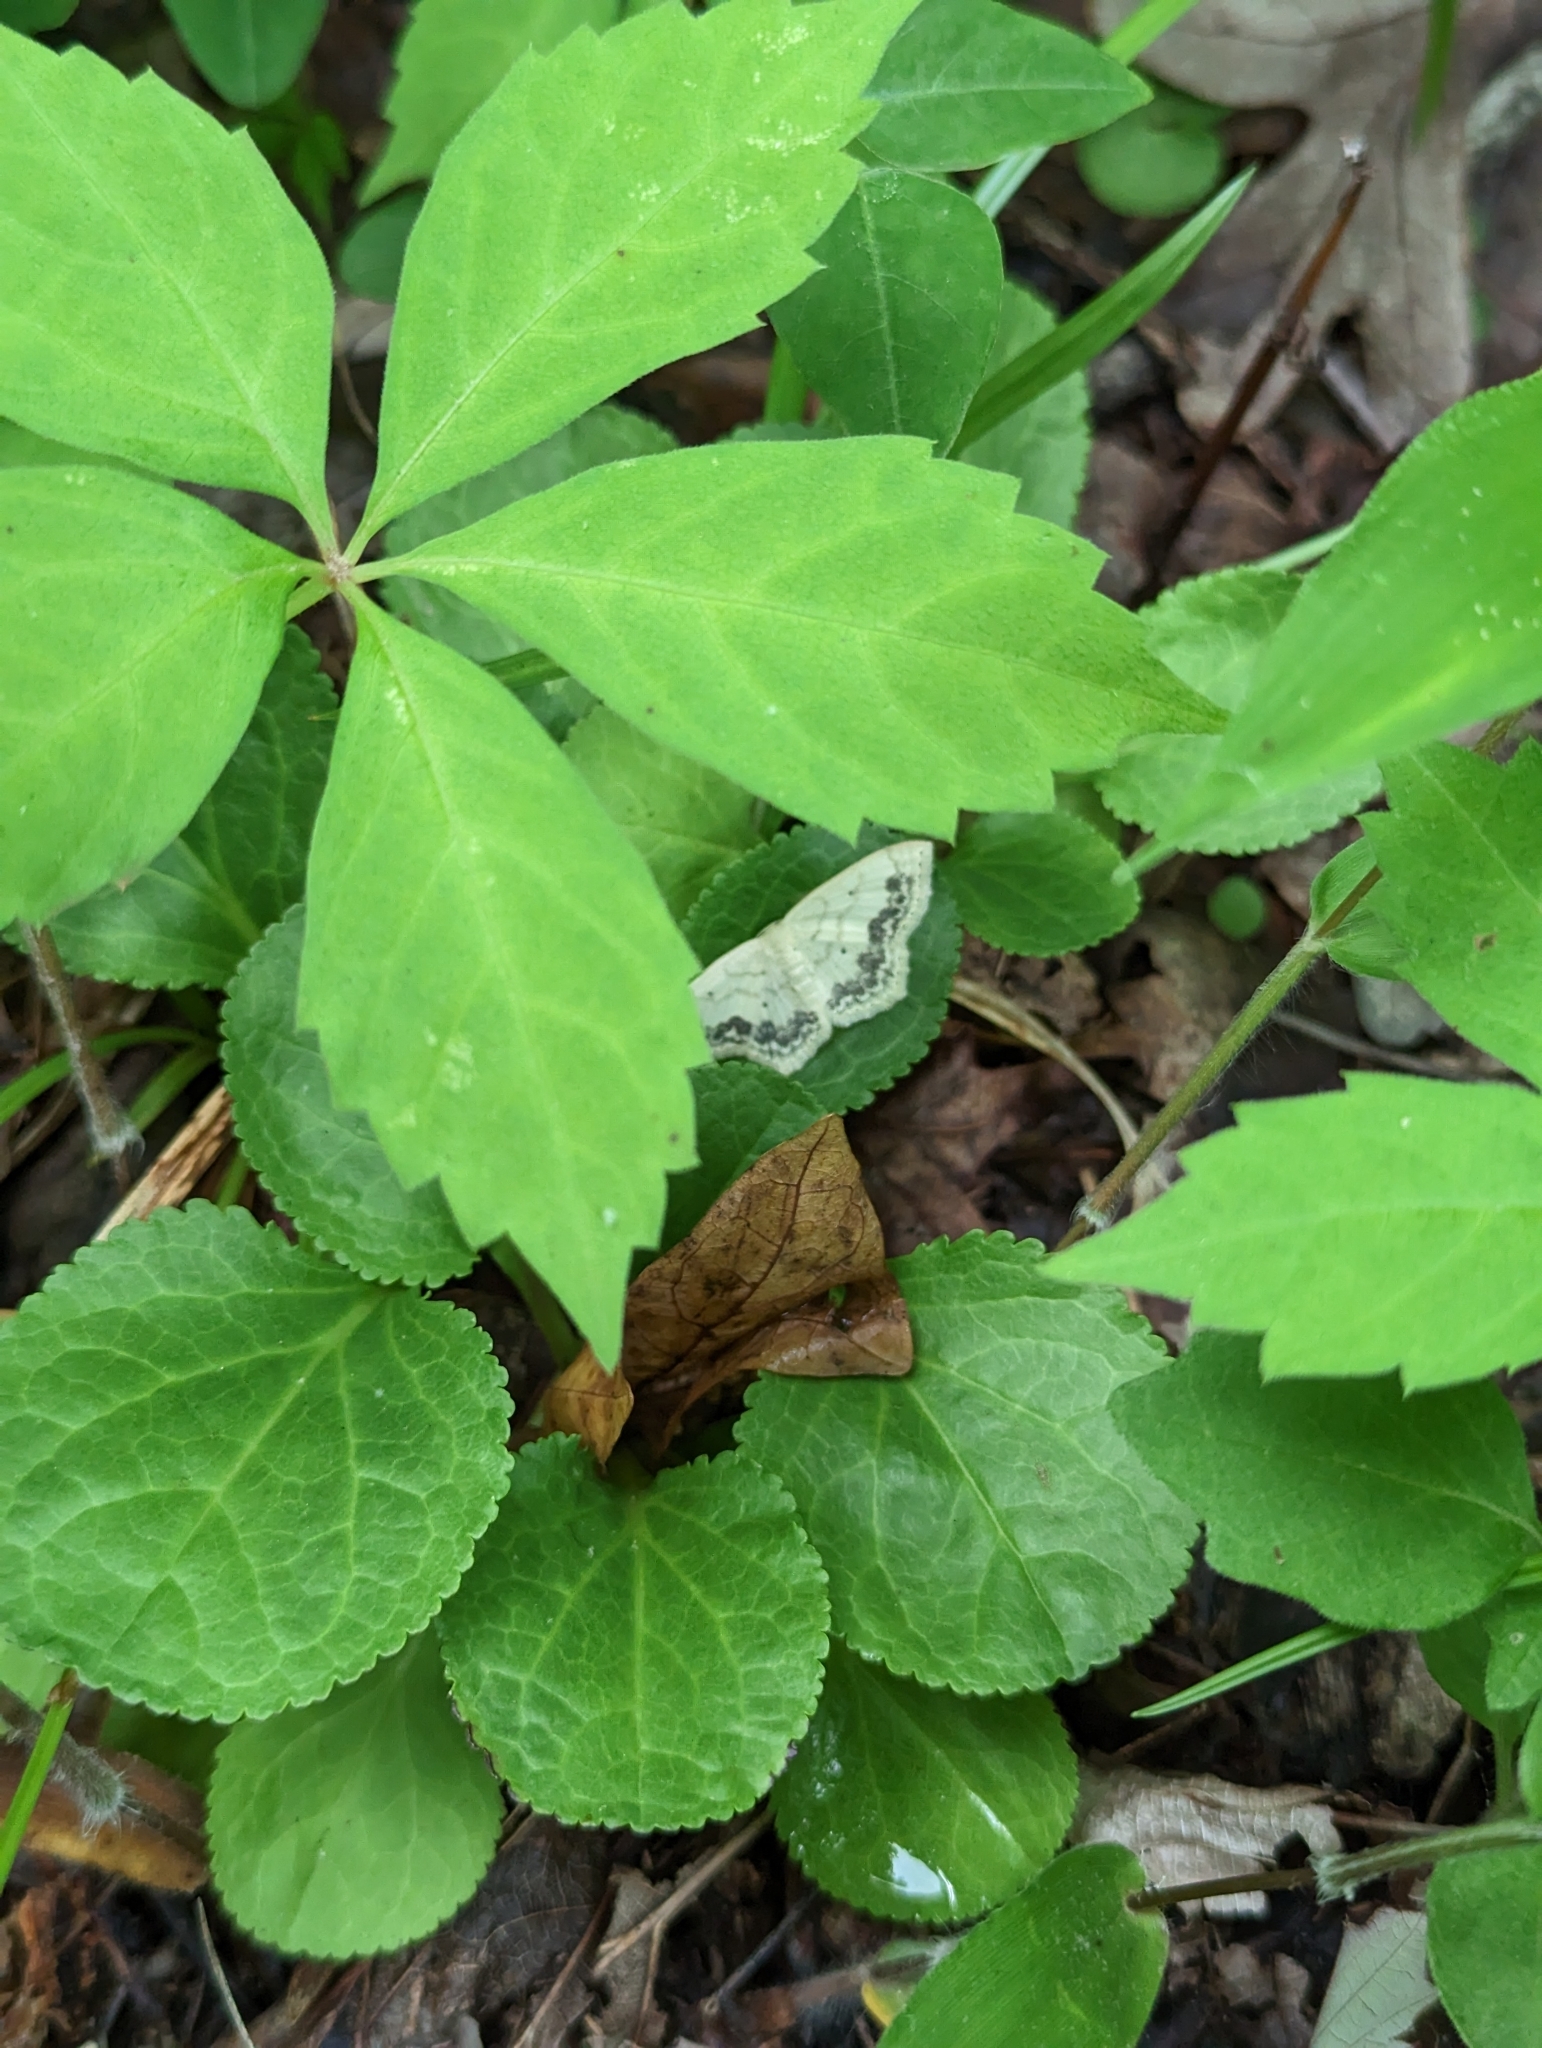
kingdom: Animalia
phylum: Arthropoda
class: Insecta
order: Lepidoptera
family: Geometridae
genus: Scopula
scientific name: Scopula limboundata
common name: Large lace border
